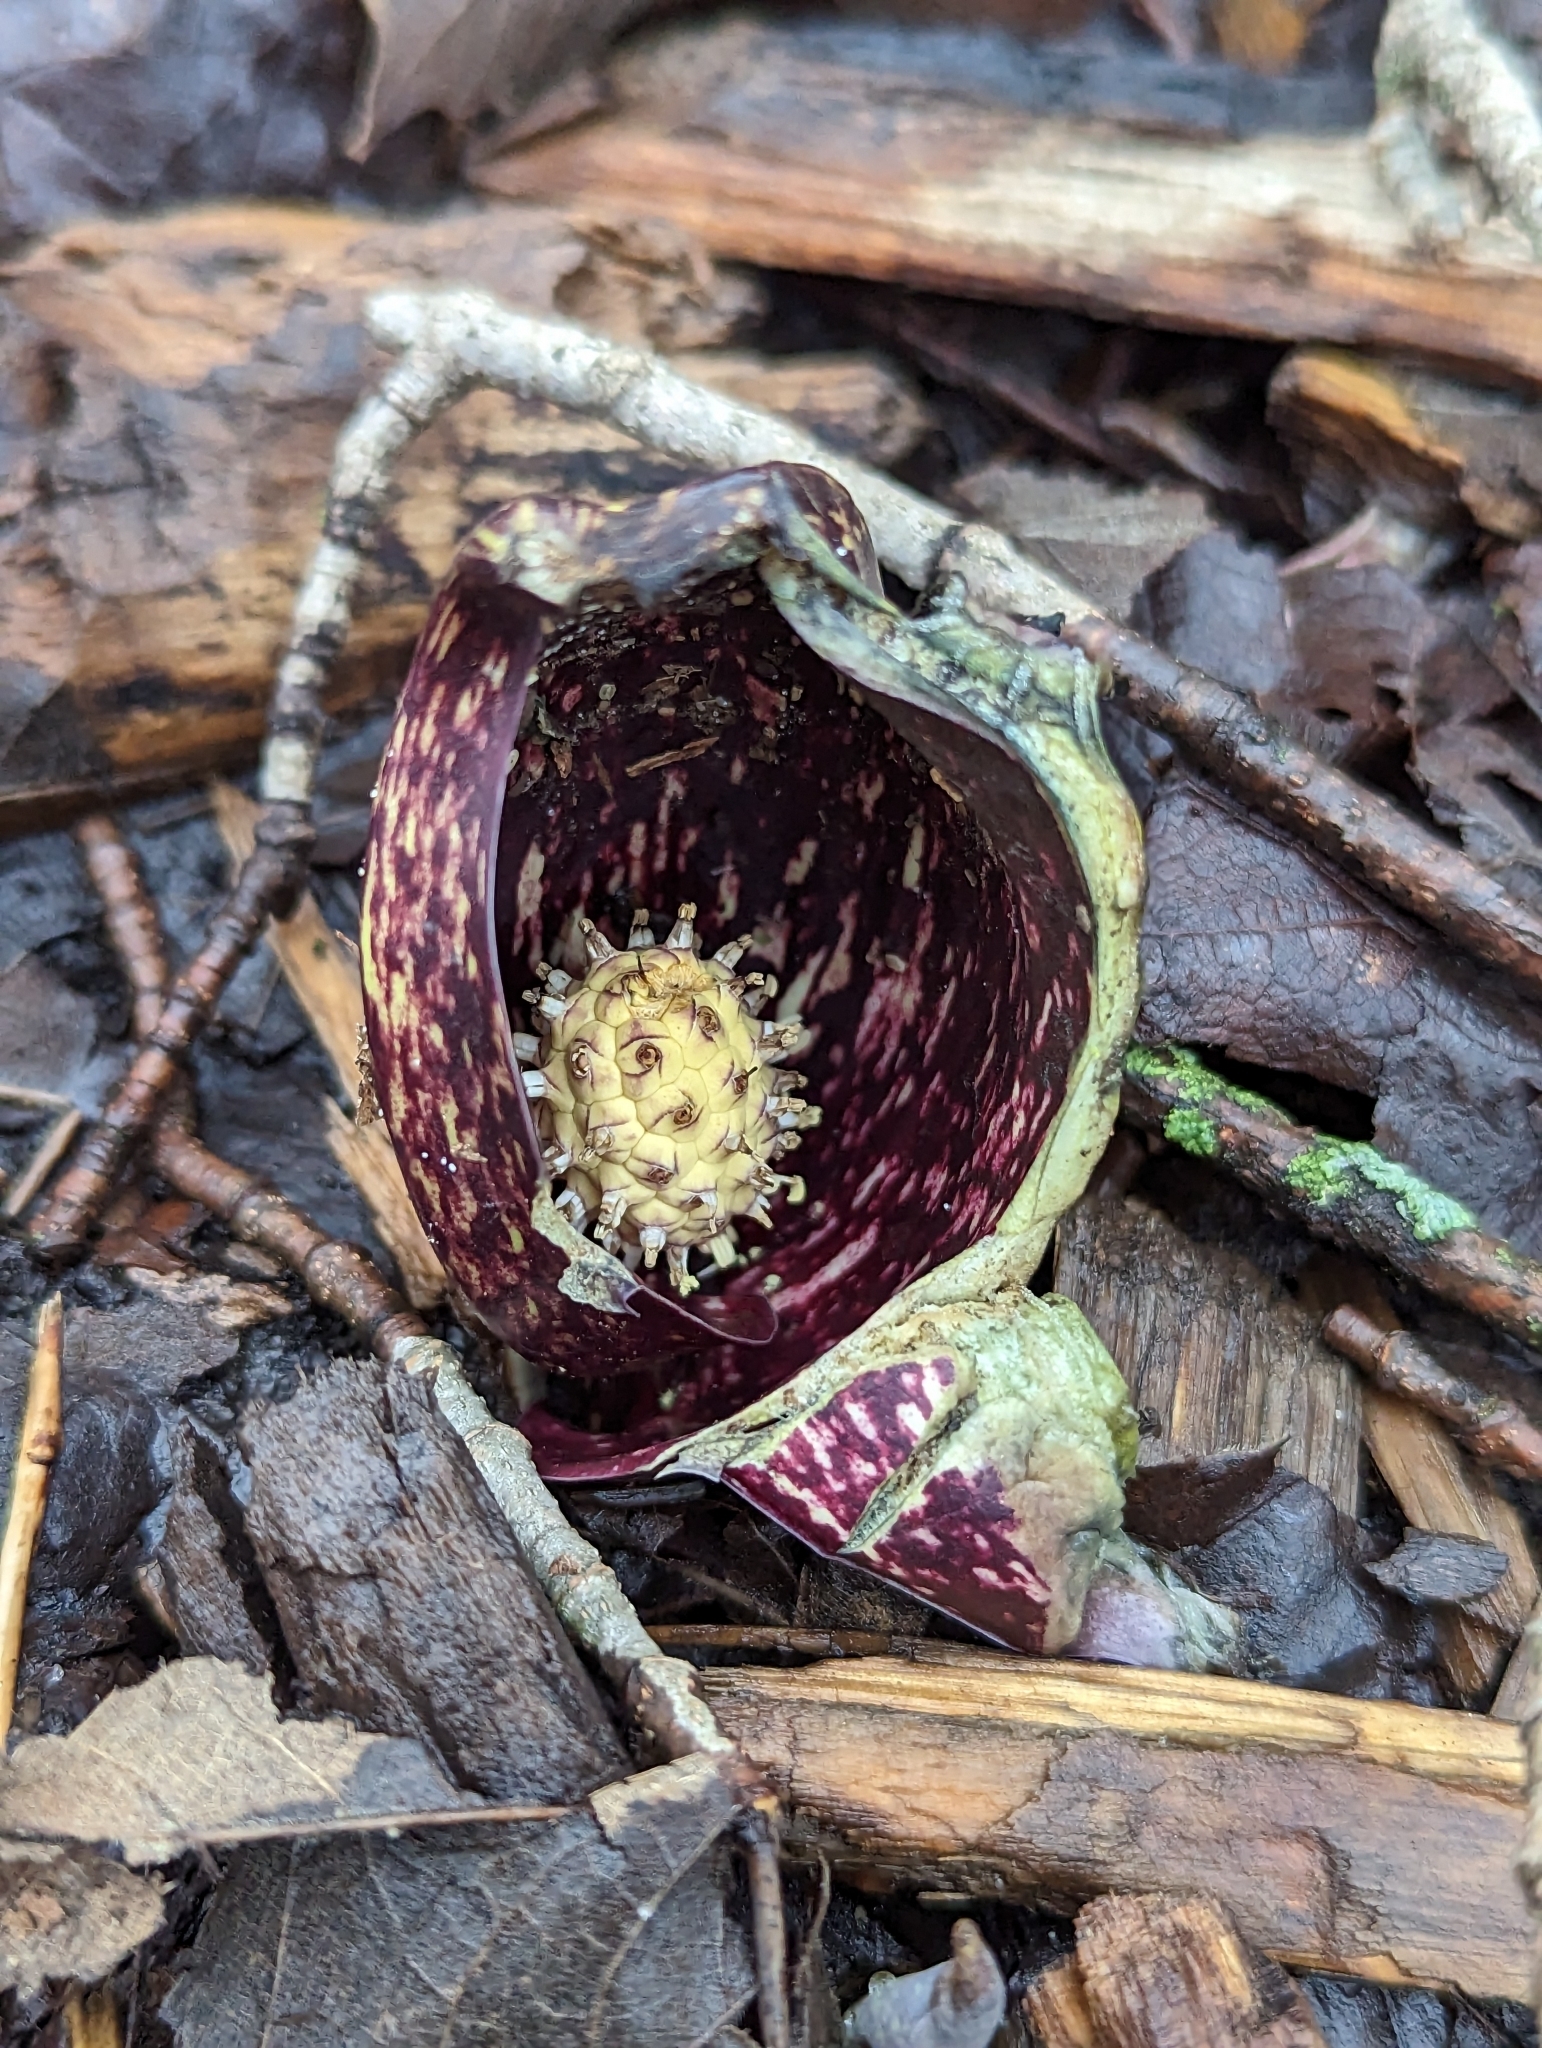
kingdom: Plantae
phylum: Tracheophyta
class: Liliopsida
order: Alismatales
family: Araceae
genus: Symplocarpus
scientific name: Symplocarpus foetidus
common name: Eastern skunk cabbage
